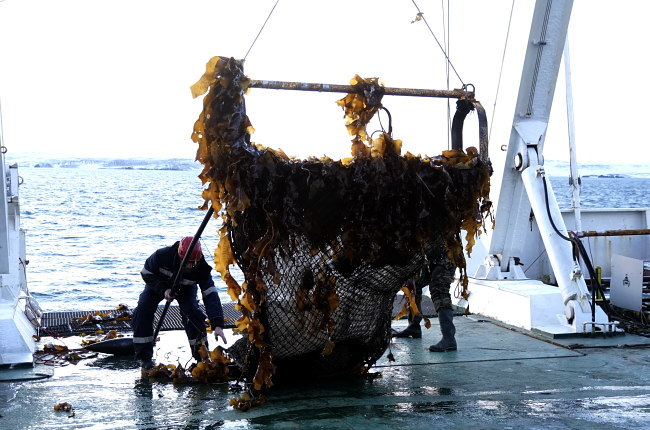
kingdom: Chromista
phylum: Ochrophyta
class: Phaeophyceae
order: Laminariales
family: Laminariaceae
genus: Saccharina
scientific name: Saccharina latissima
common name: Poor man's weather glass
